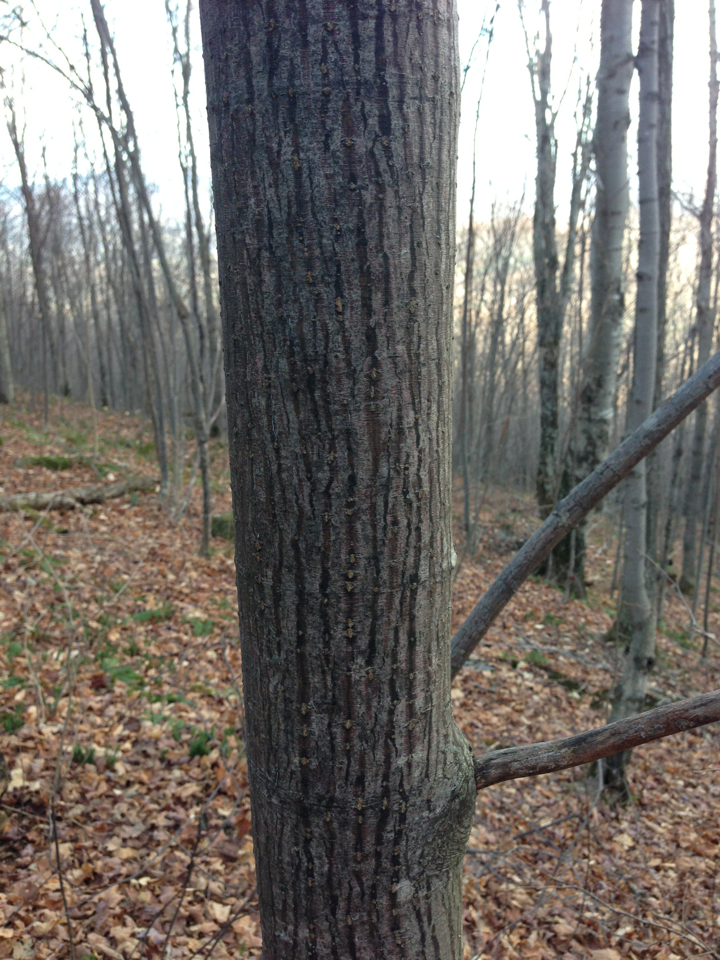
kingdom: Plantae
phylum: Tracheophyta
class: Magnoliopsida
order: Sapindales
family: Sapindaceae
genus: Acer
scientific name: Acer pensylvanicum
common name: Moosewood
